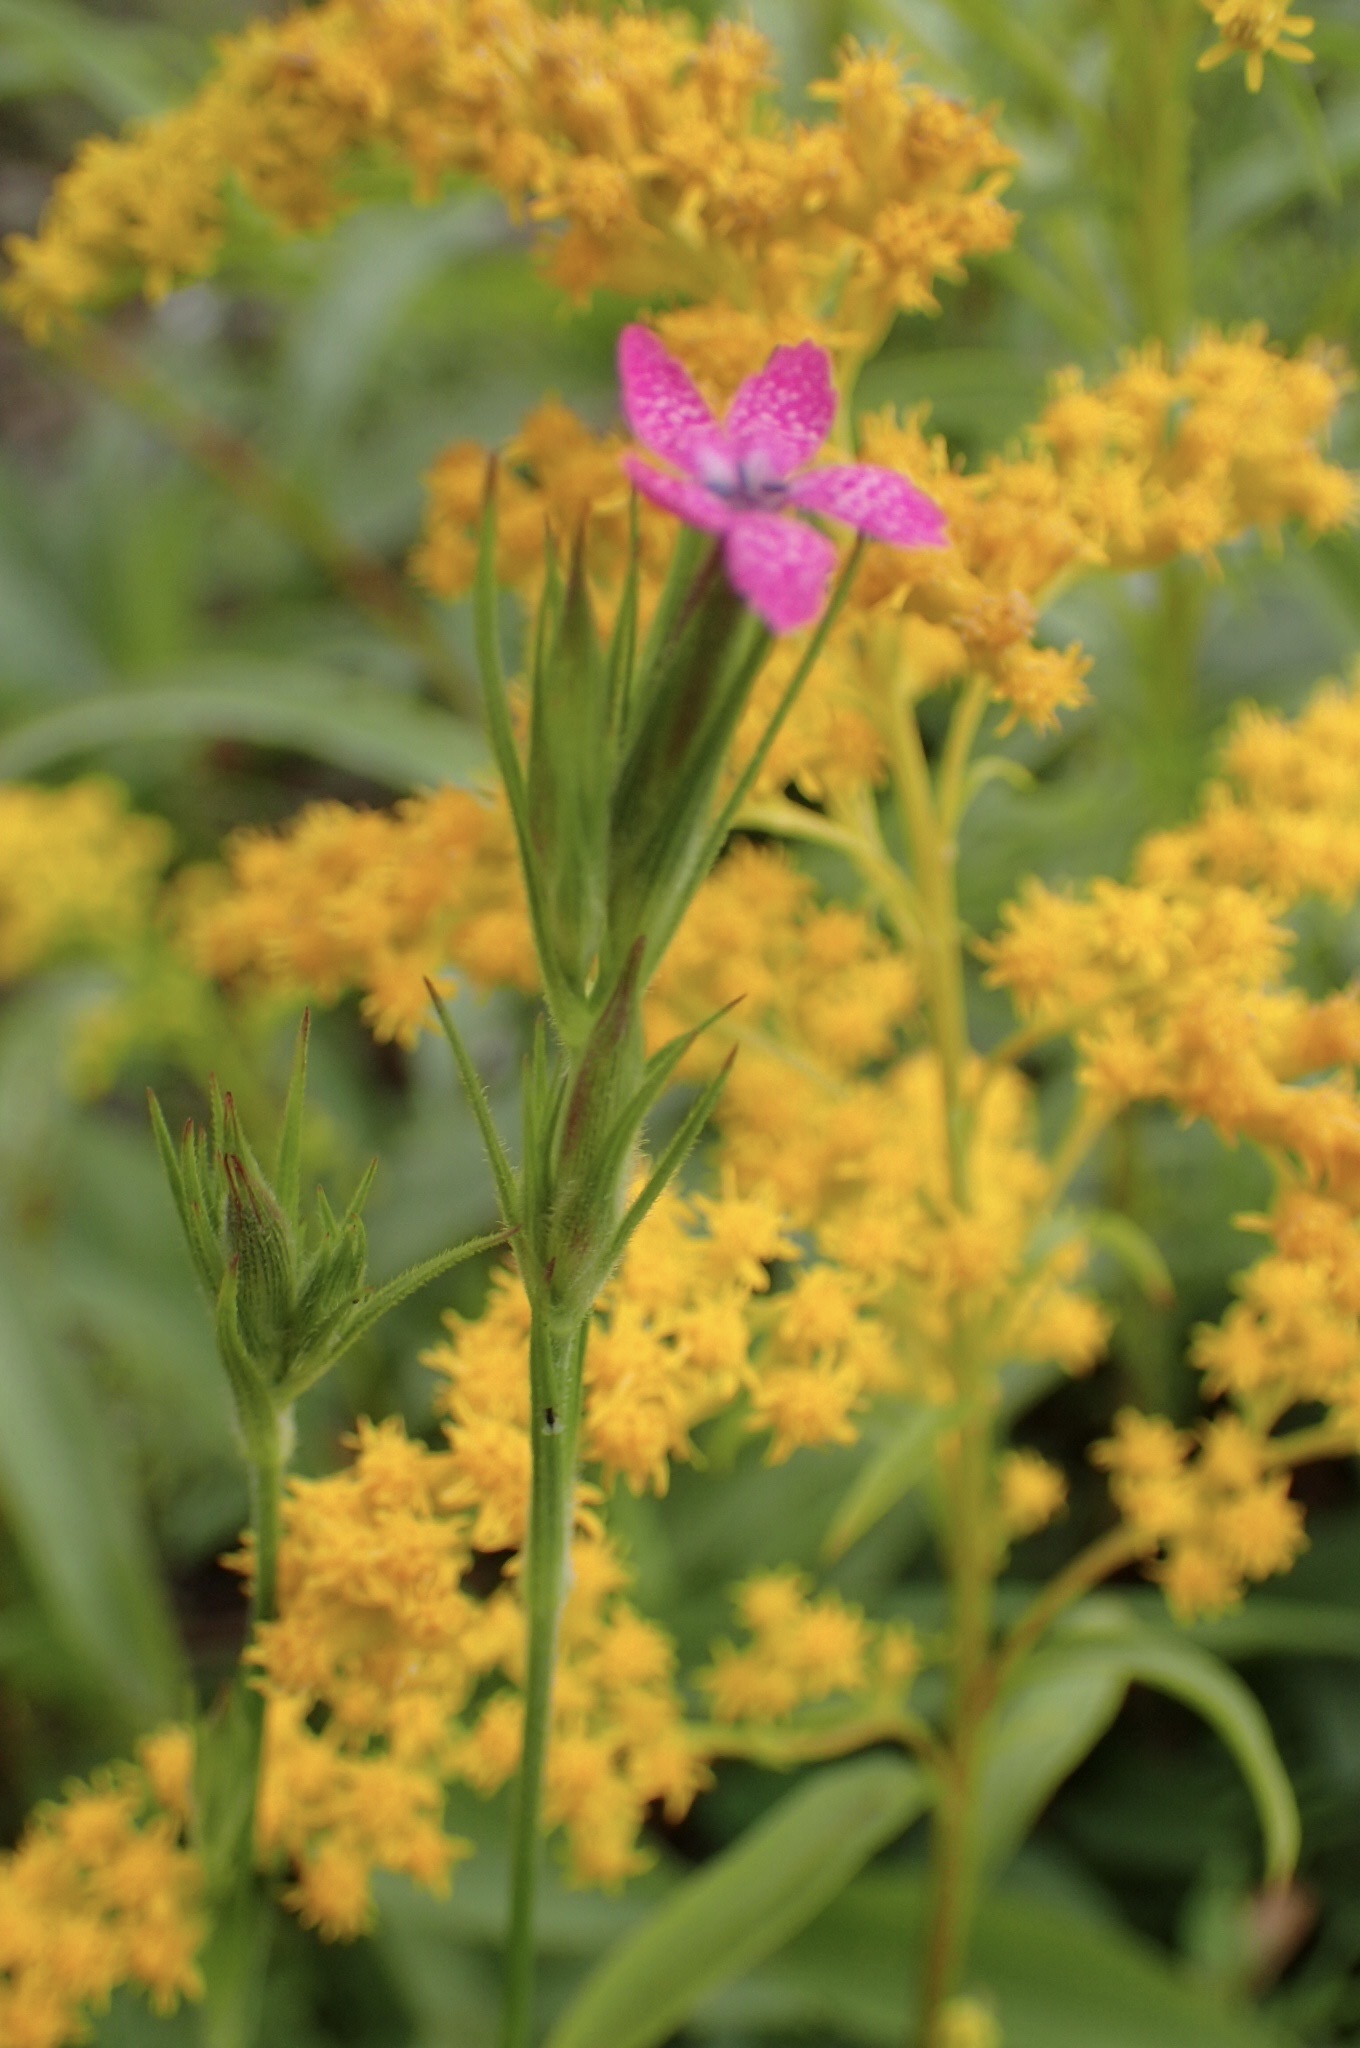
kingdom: Plantae
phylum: Tracheophyta
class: Magnoliopsida
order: Caryophyllales
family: Caryophyllaceae
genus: Dianthus
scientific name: Dianthus armeria
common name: Deptford pink
